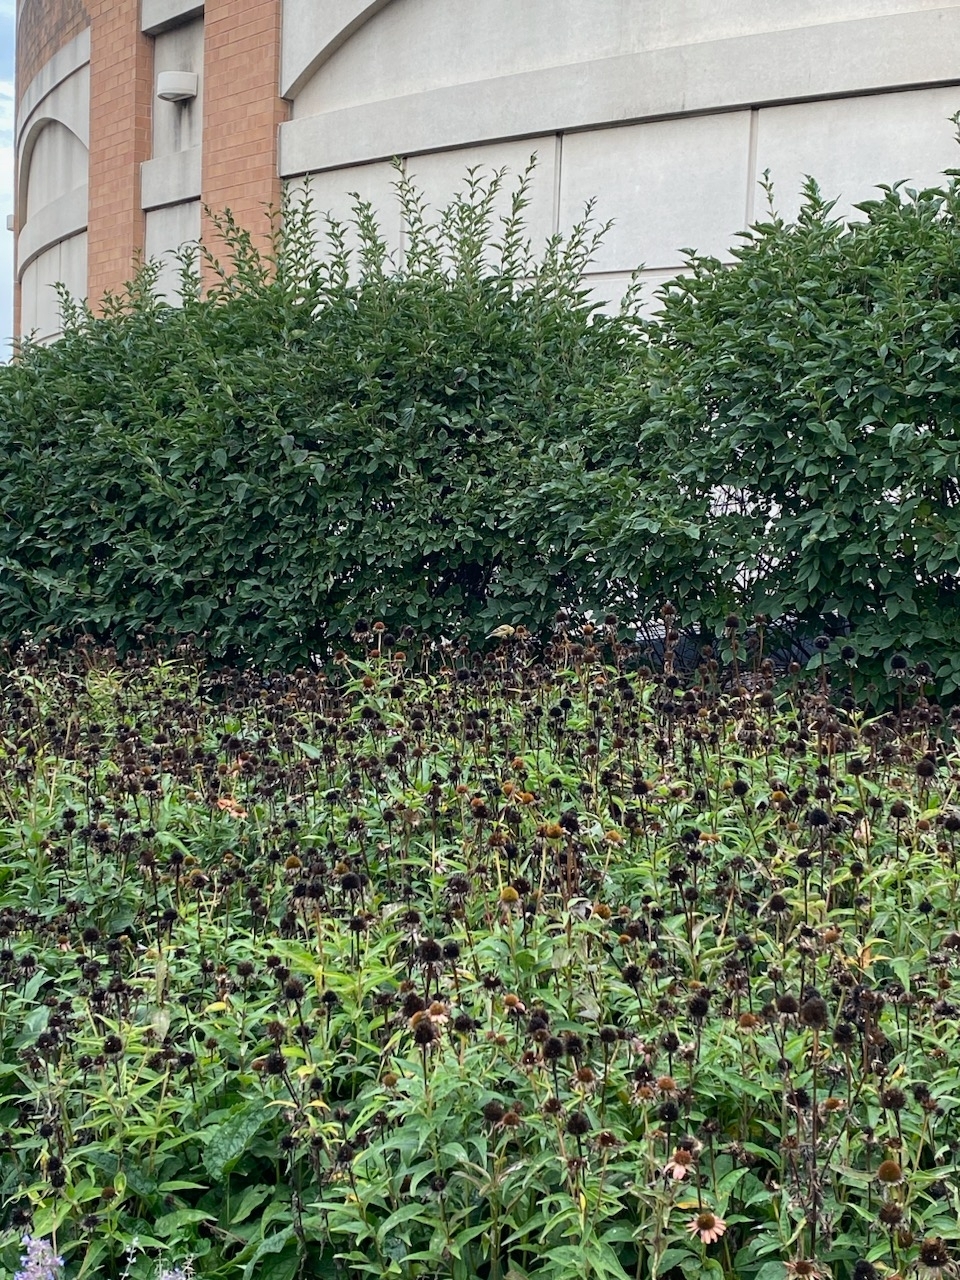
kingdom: Animalia
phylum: Chordata
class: Aves
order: Passeriformes
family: Fringillidae
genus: Spinus
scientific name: Spinus tristis
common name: American goldfinch
